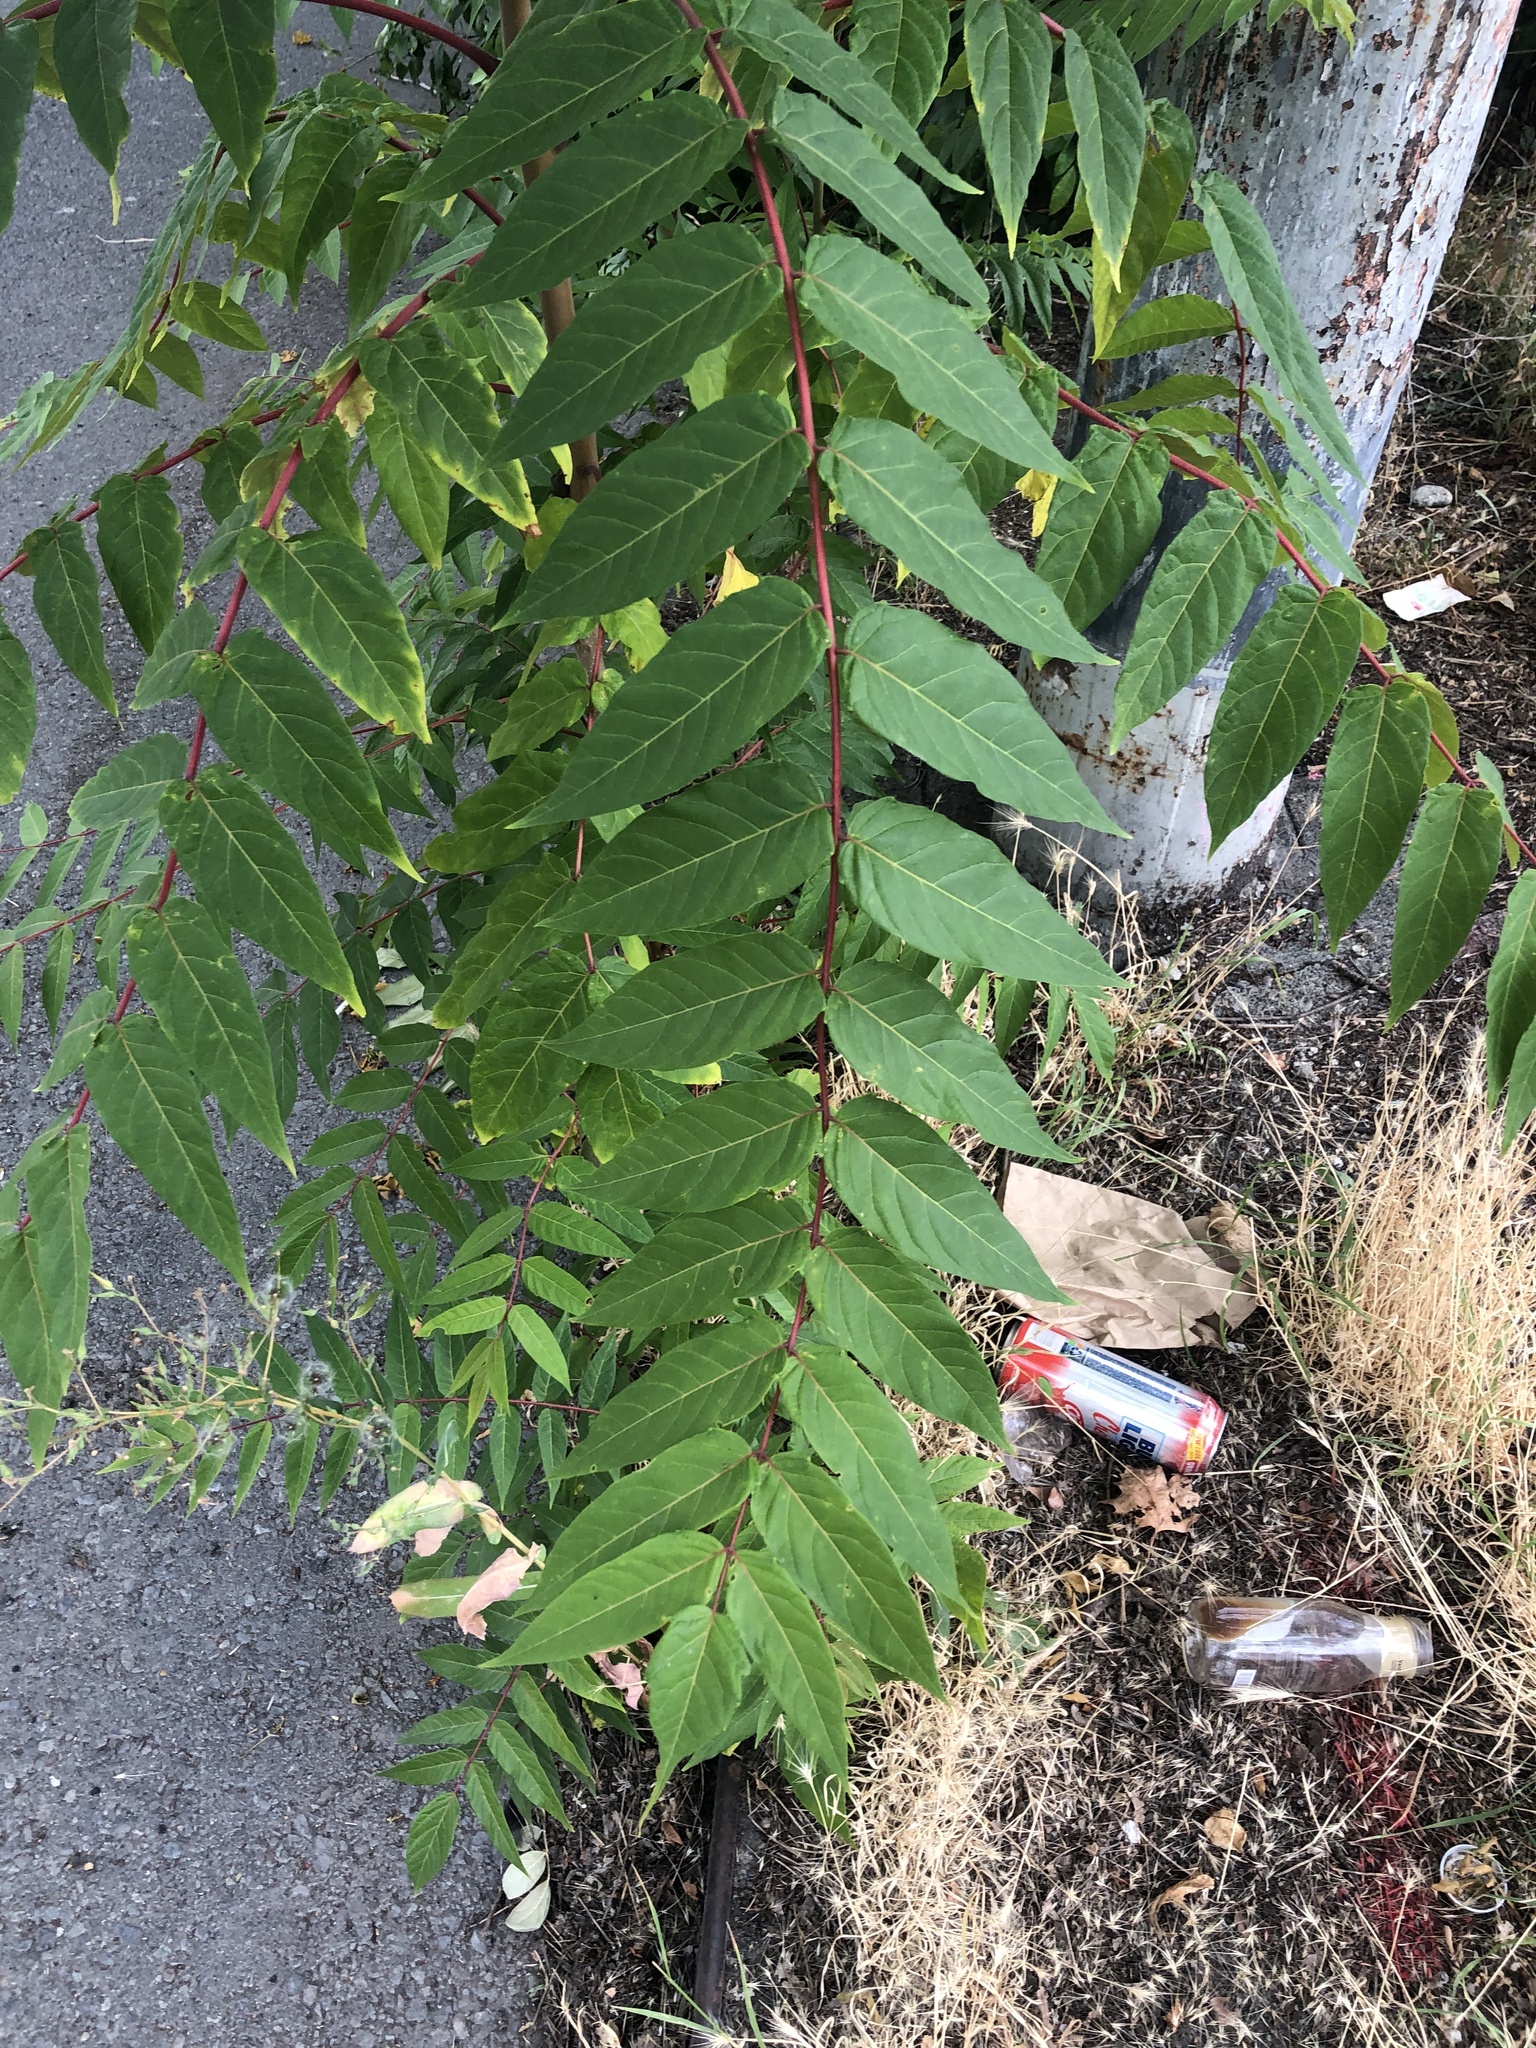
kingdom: Plantae
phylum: Tracheophyta
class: Magnoliopsida
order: Sapindales
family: Simaroubaceae
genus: Ailanthus
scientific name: Ailanthus altissima
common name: Tree-of-heaven
